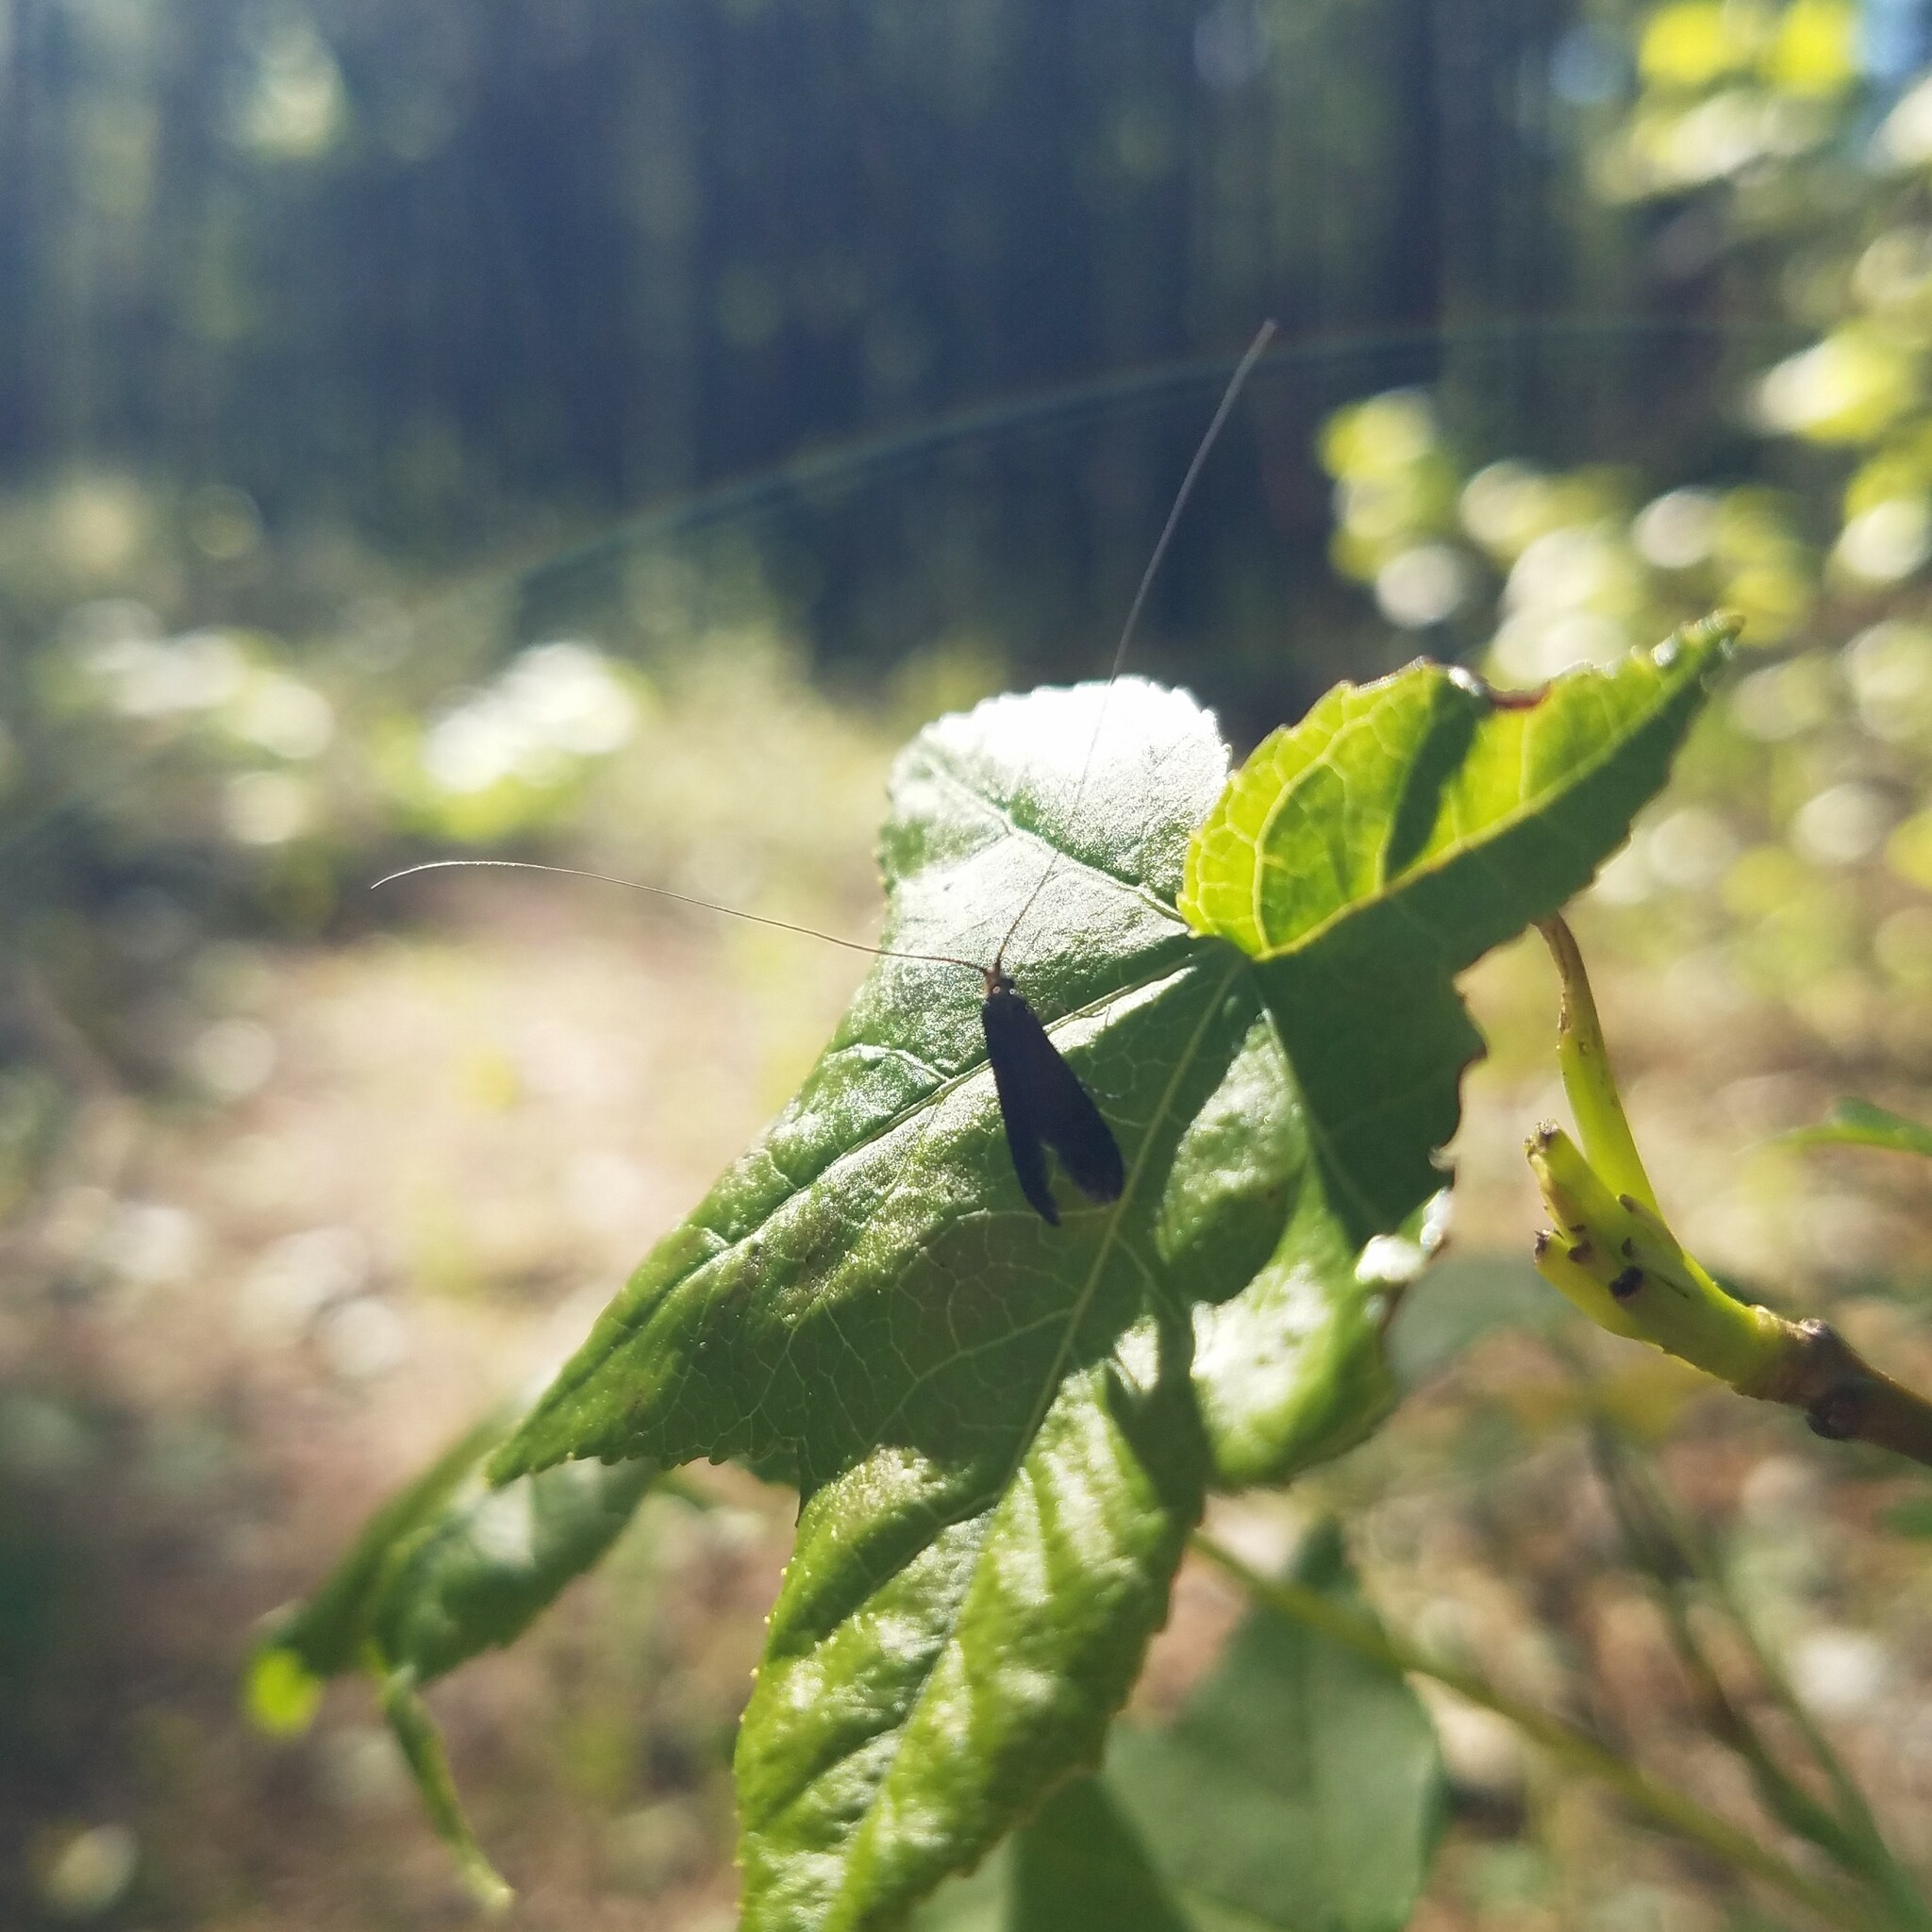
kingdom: Animalia
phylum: Arthropoda
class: Insecta
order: Lepidoptera
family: Adelidae
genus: Adela
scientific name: Adela caeruleella
